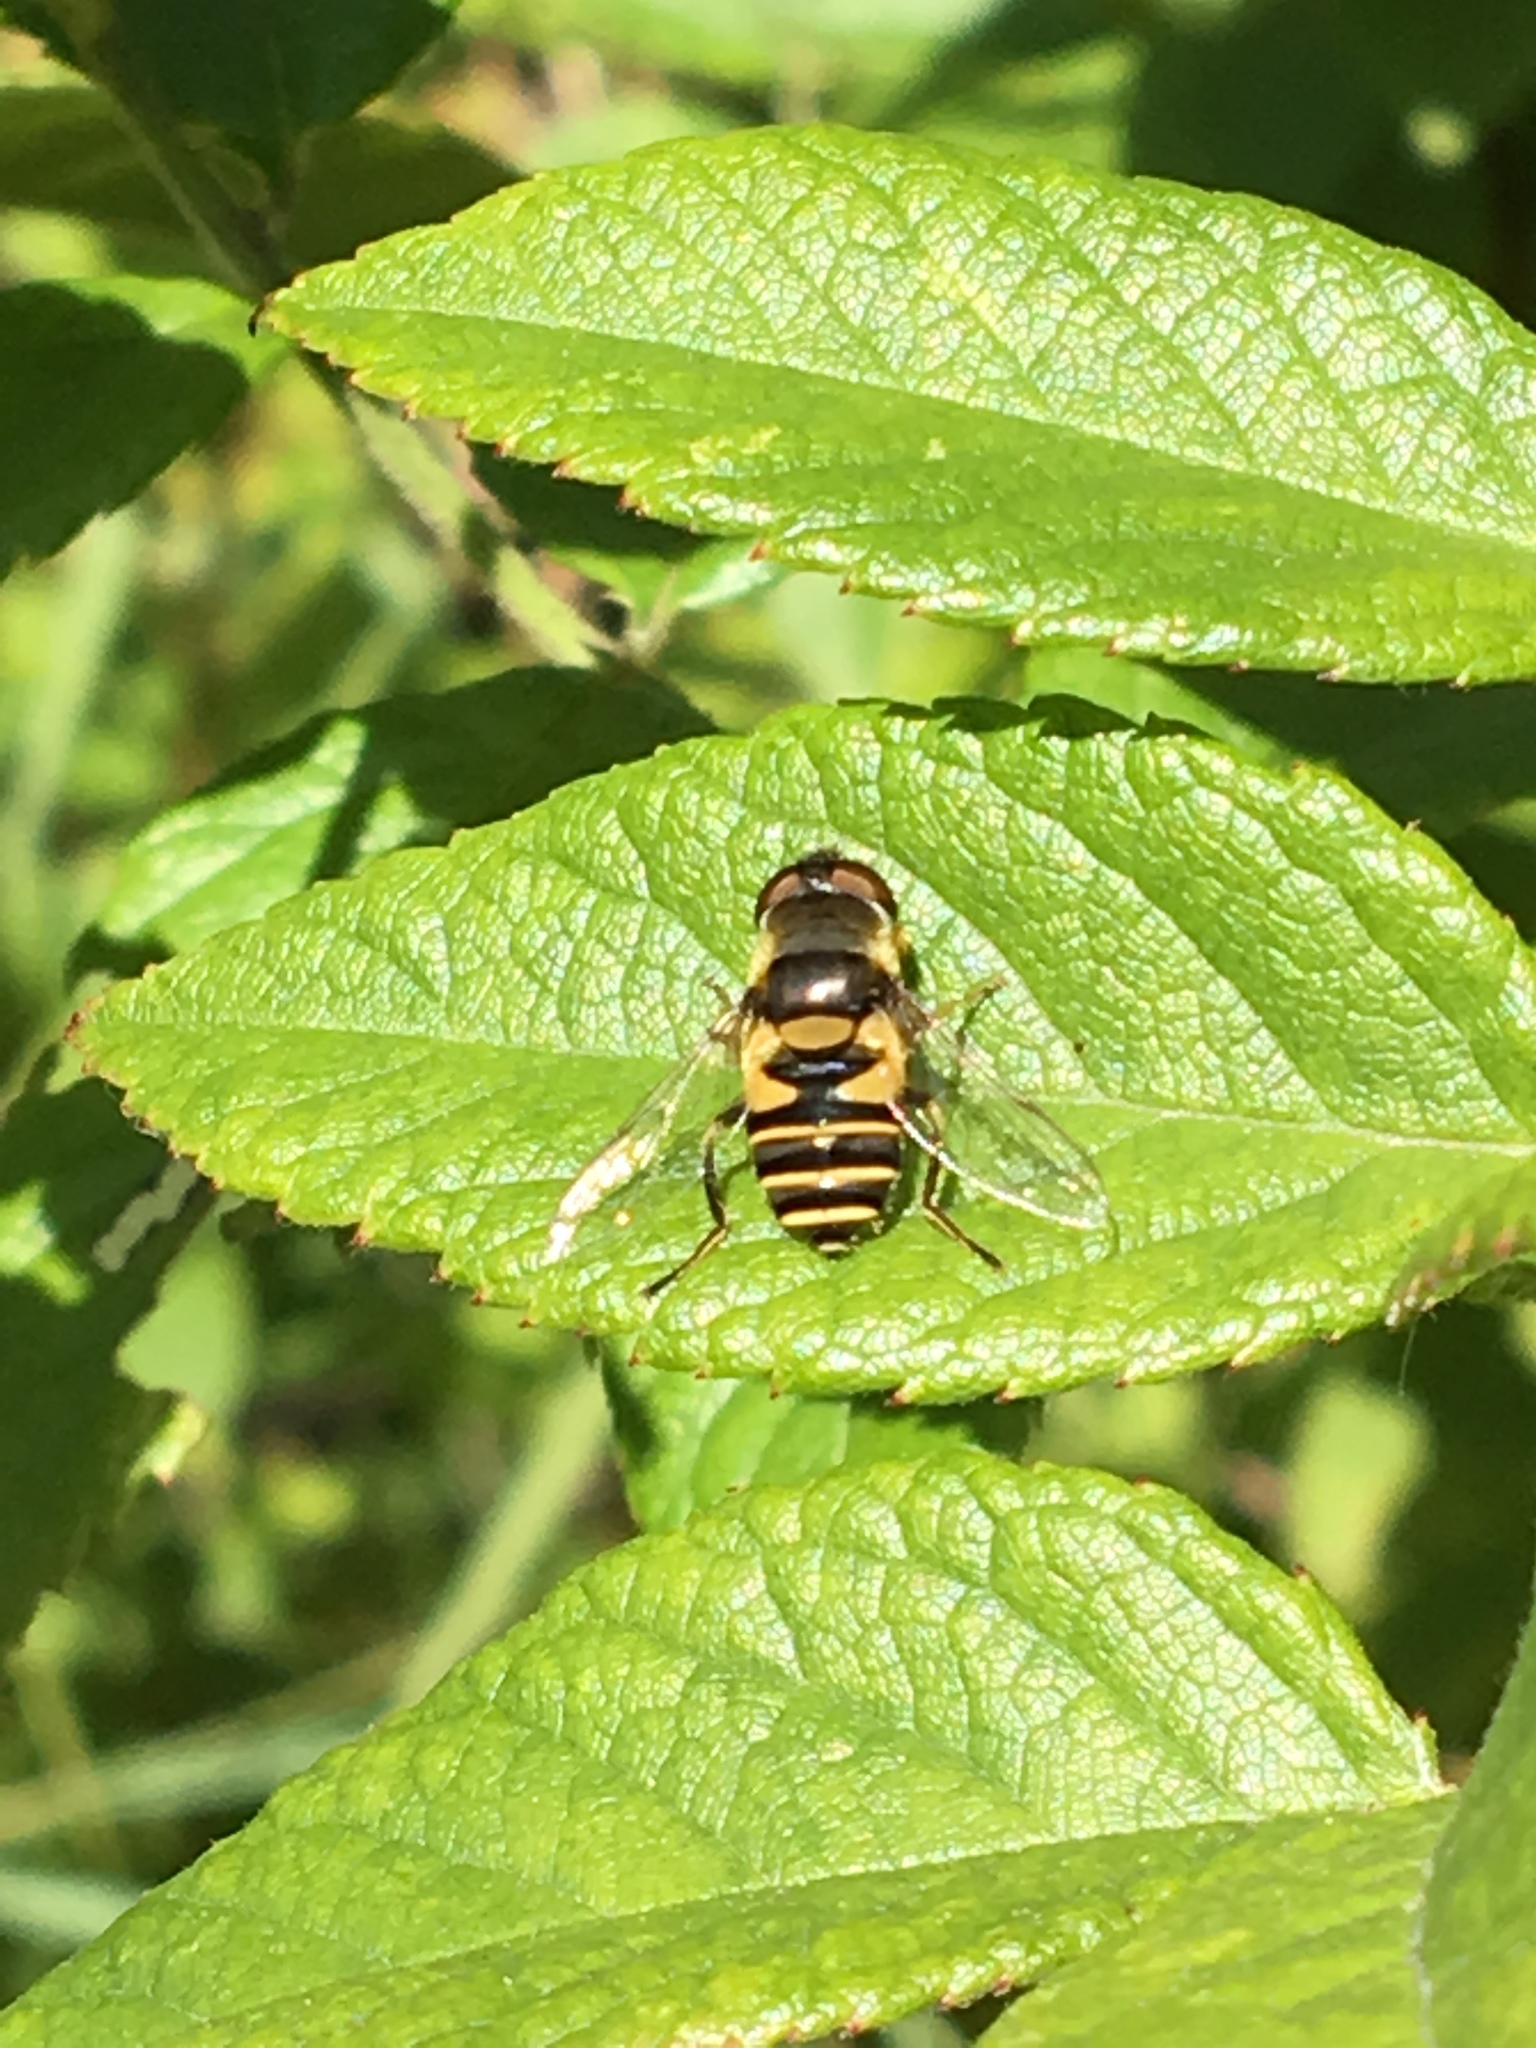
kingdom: Animalia
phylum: Arthropoda
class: Insecta
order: Diptera
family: Syrphidae
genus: Eristalis
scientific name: Eristalis transversa
